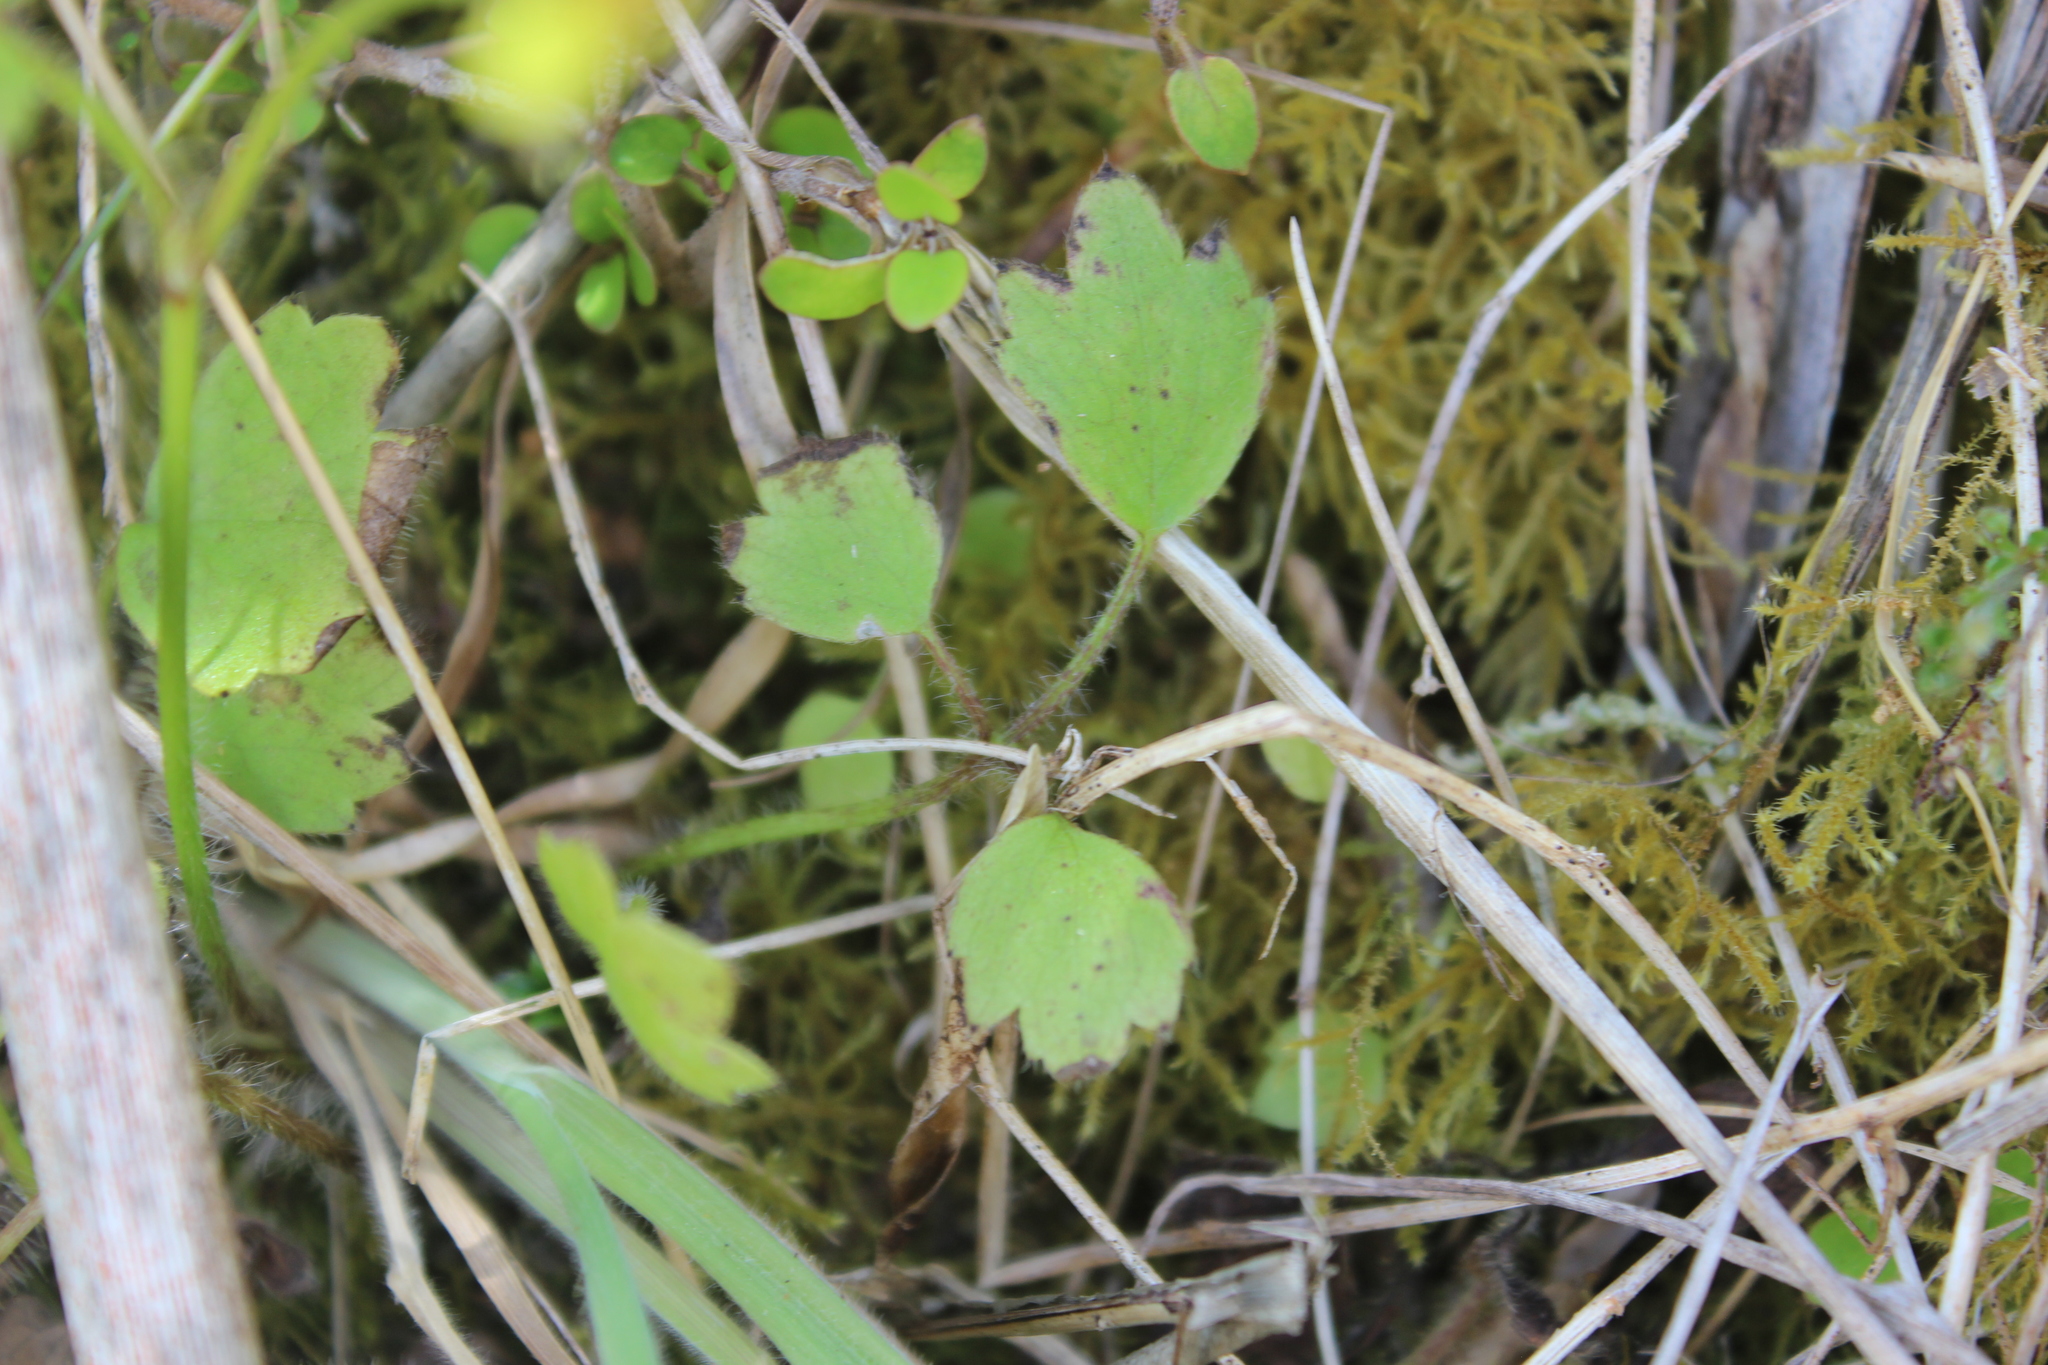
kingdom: Plantae
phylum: Tracheophyta
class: Magnoliopsida
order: Ranunculales
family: Ranunculaceae
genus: Ranunculus
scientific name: Ranunculus reflexus
